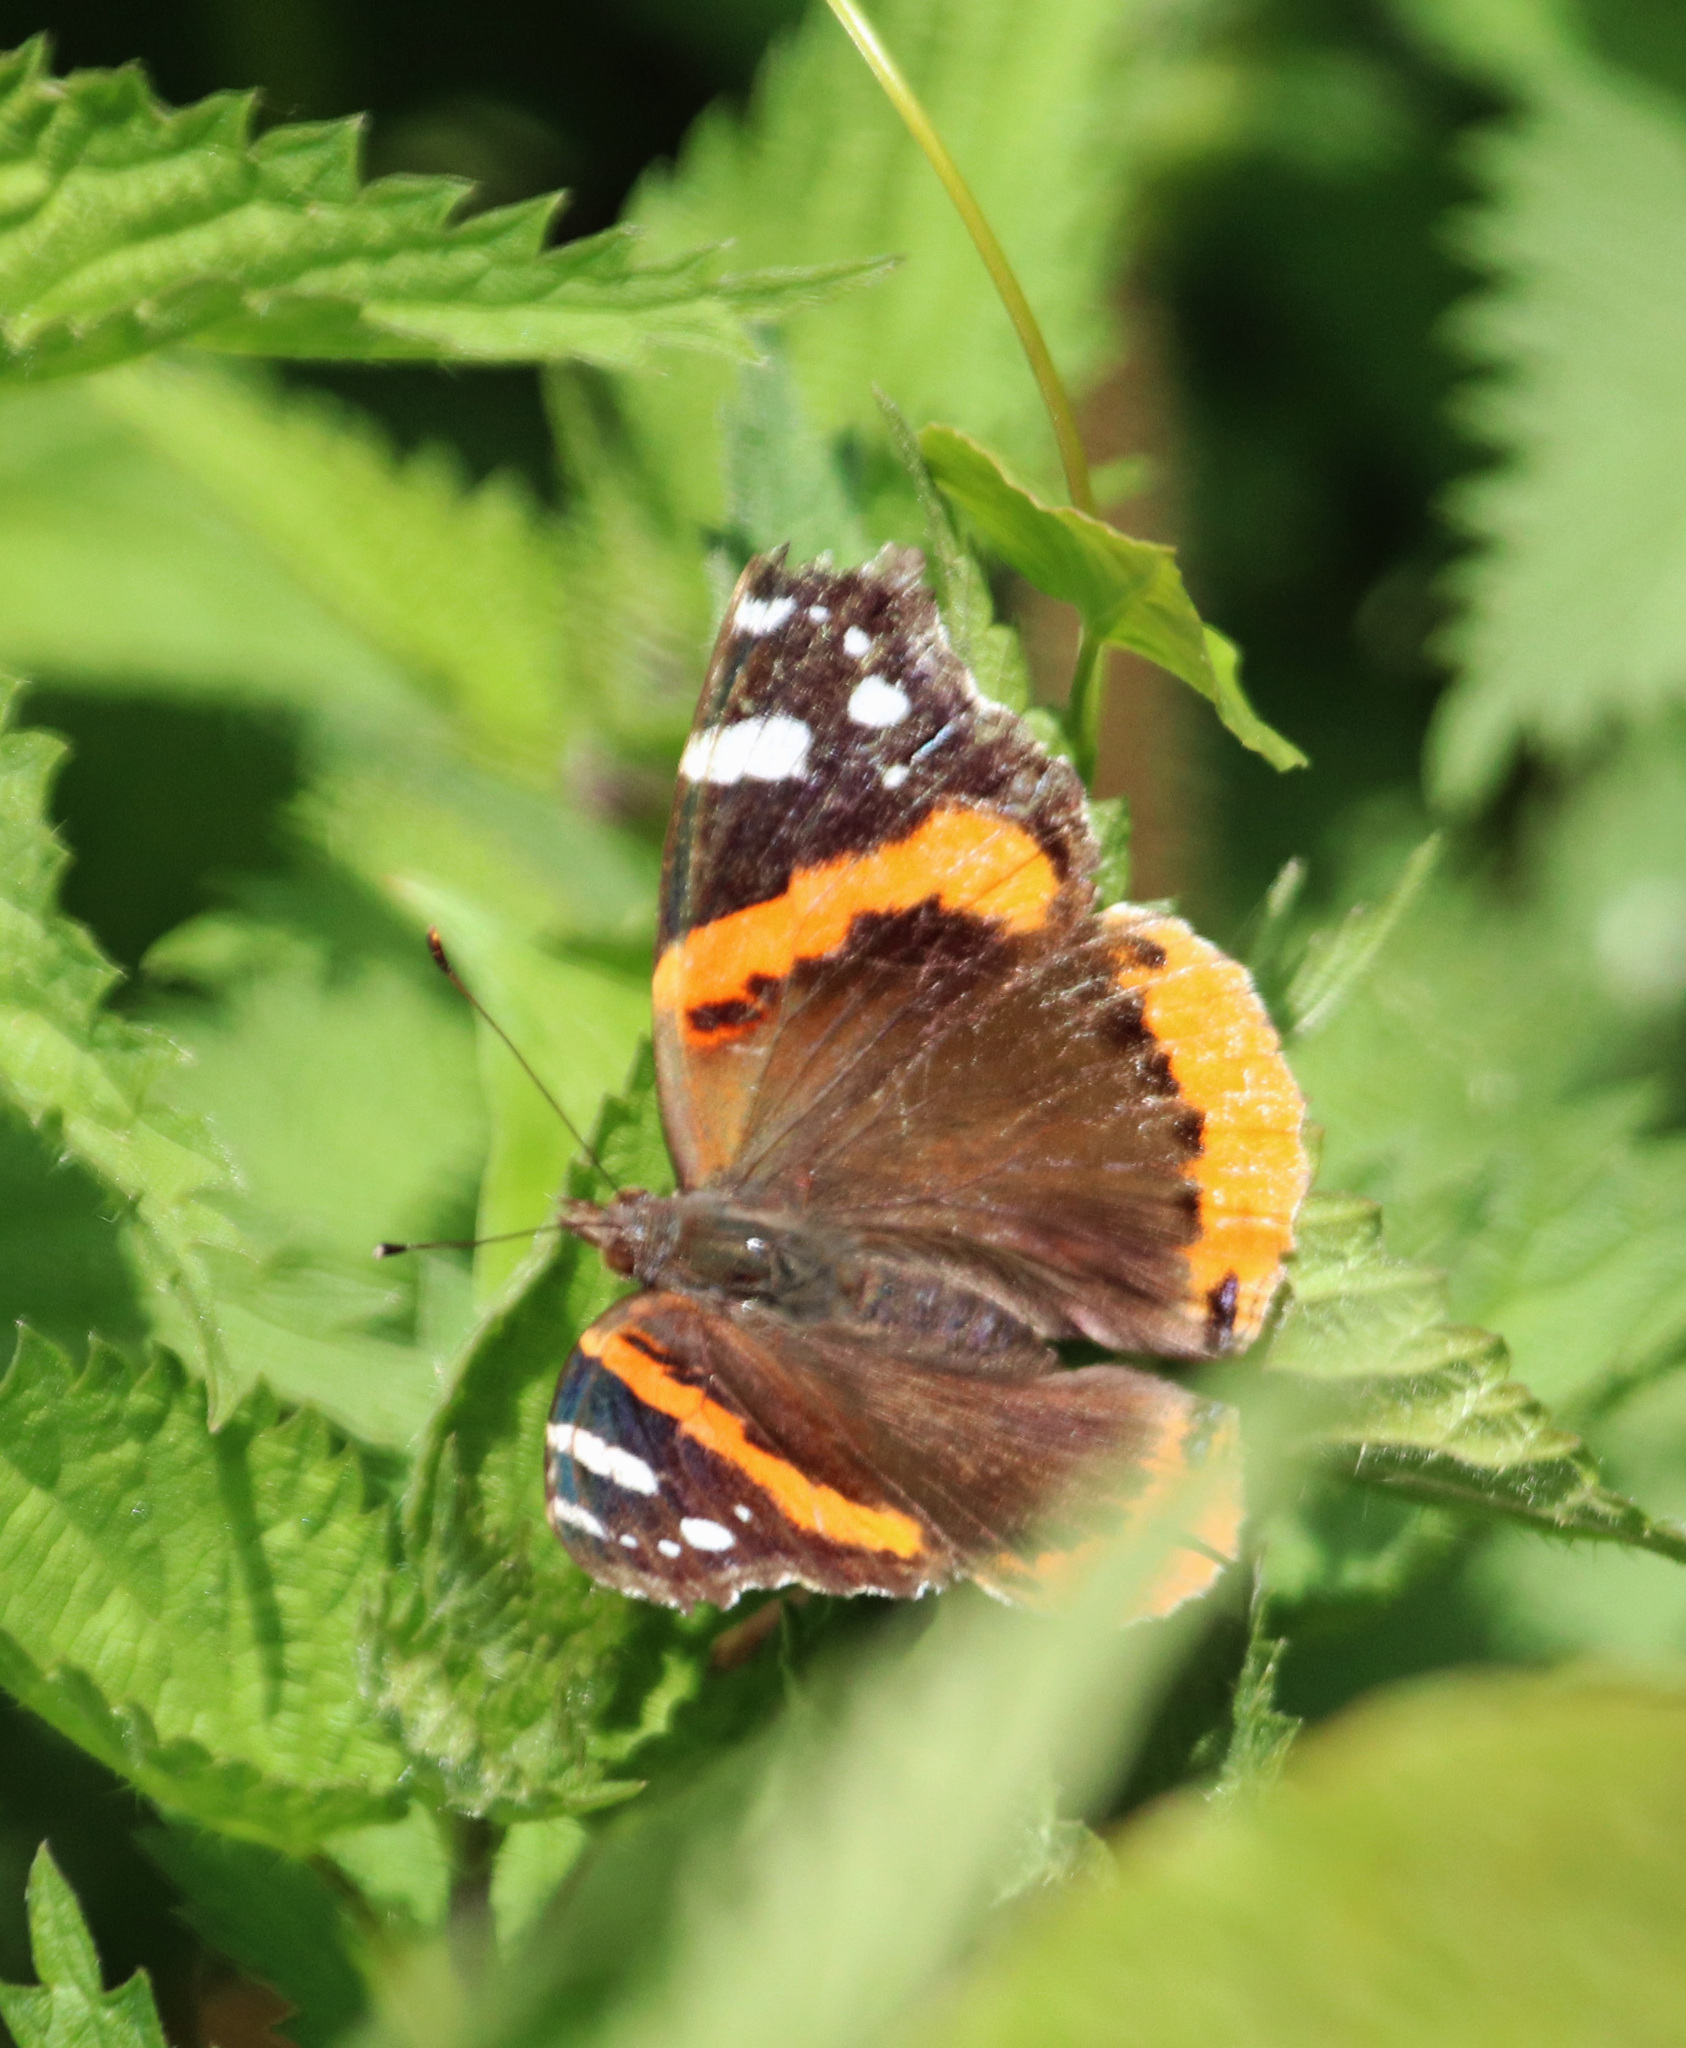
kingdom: Animalia
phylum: Arthropoda
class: Insecta
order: Lepidoptera
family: Nymphalidae
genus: Vanessa
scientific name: Vanessa atalanta
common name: Red admiral
